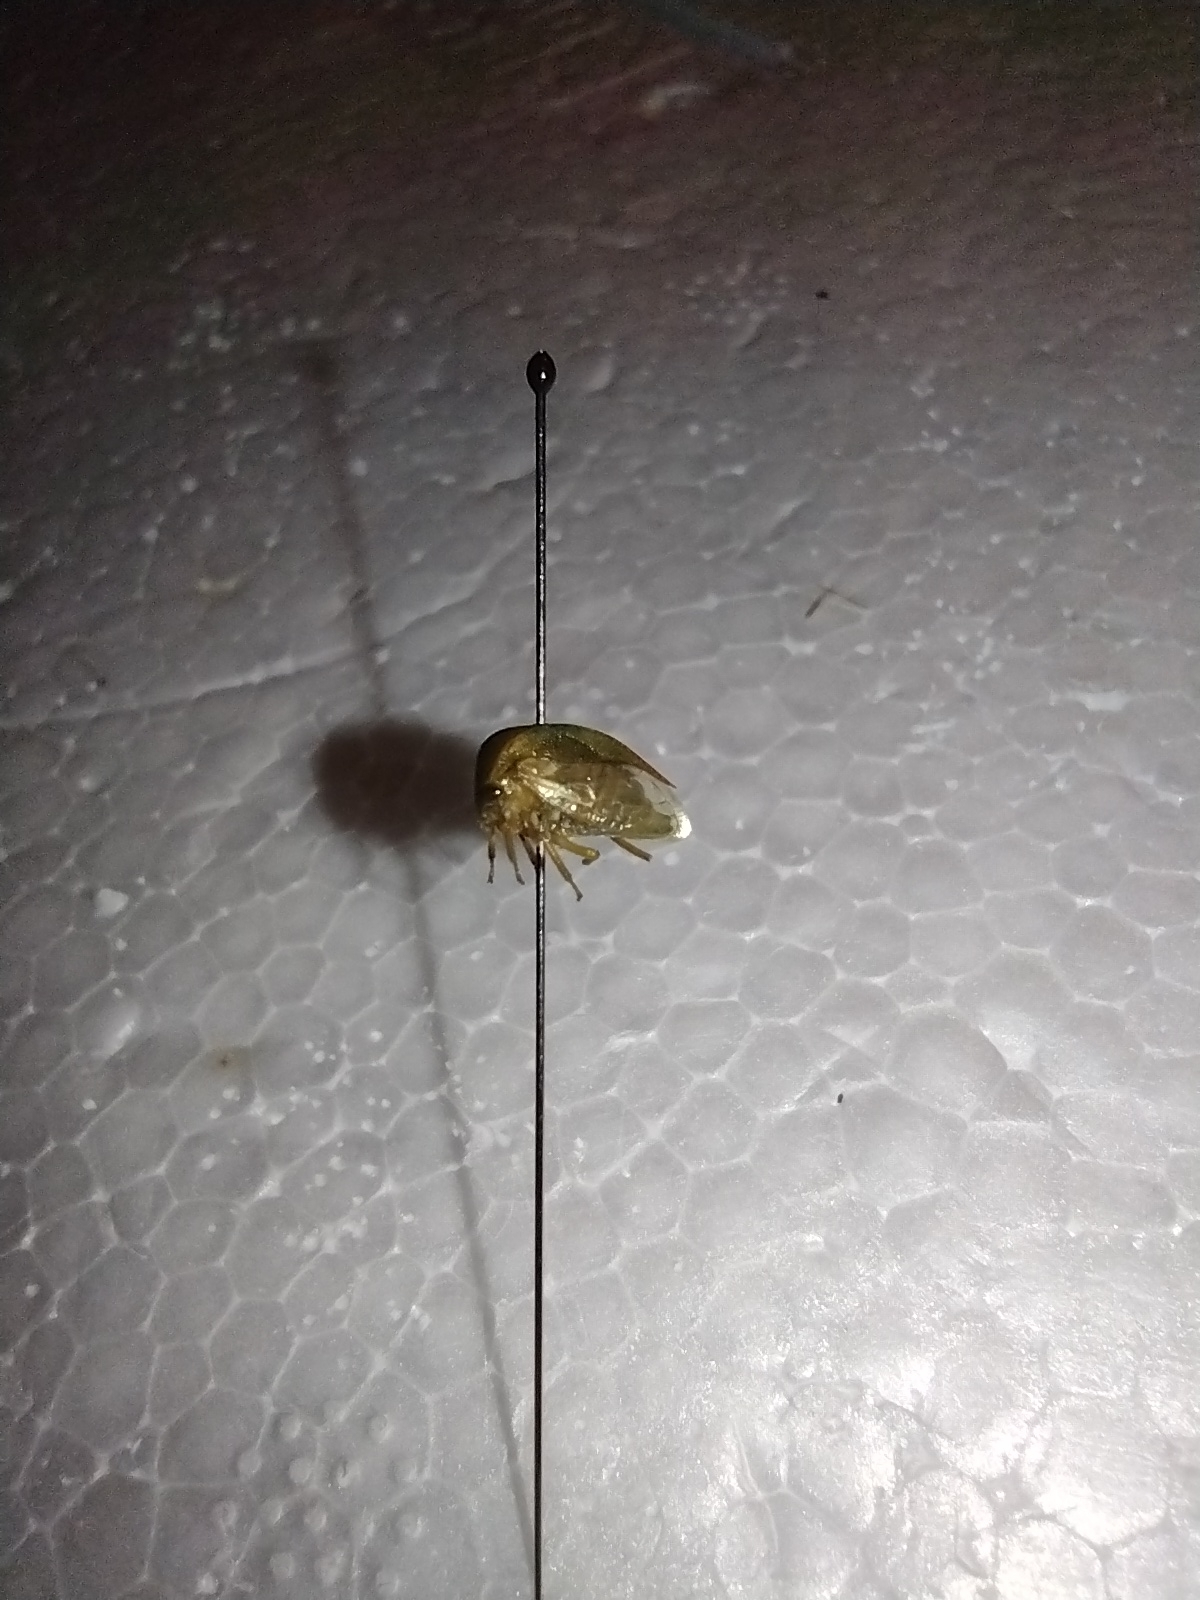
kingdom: Animalia
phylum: Arthropoda
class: Insecta
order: Hemiptera
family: Membracidae
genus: Spissistilus
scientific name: Spissistilus festina
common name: Membracid bug
